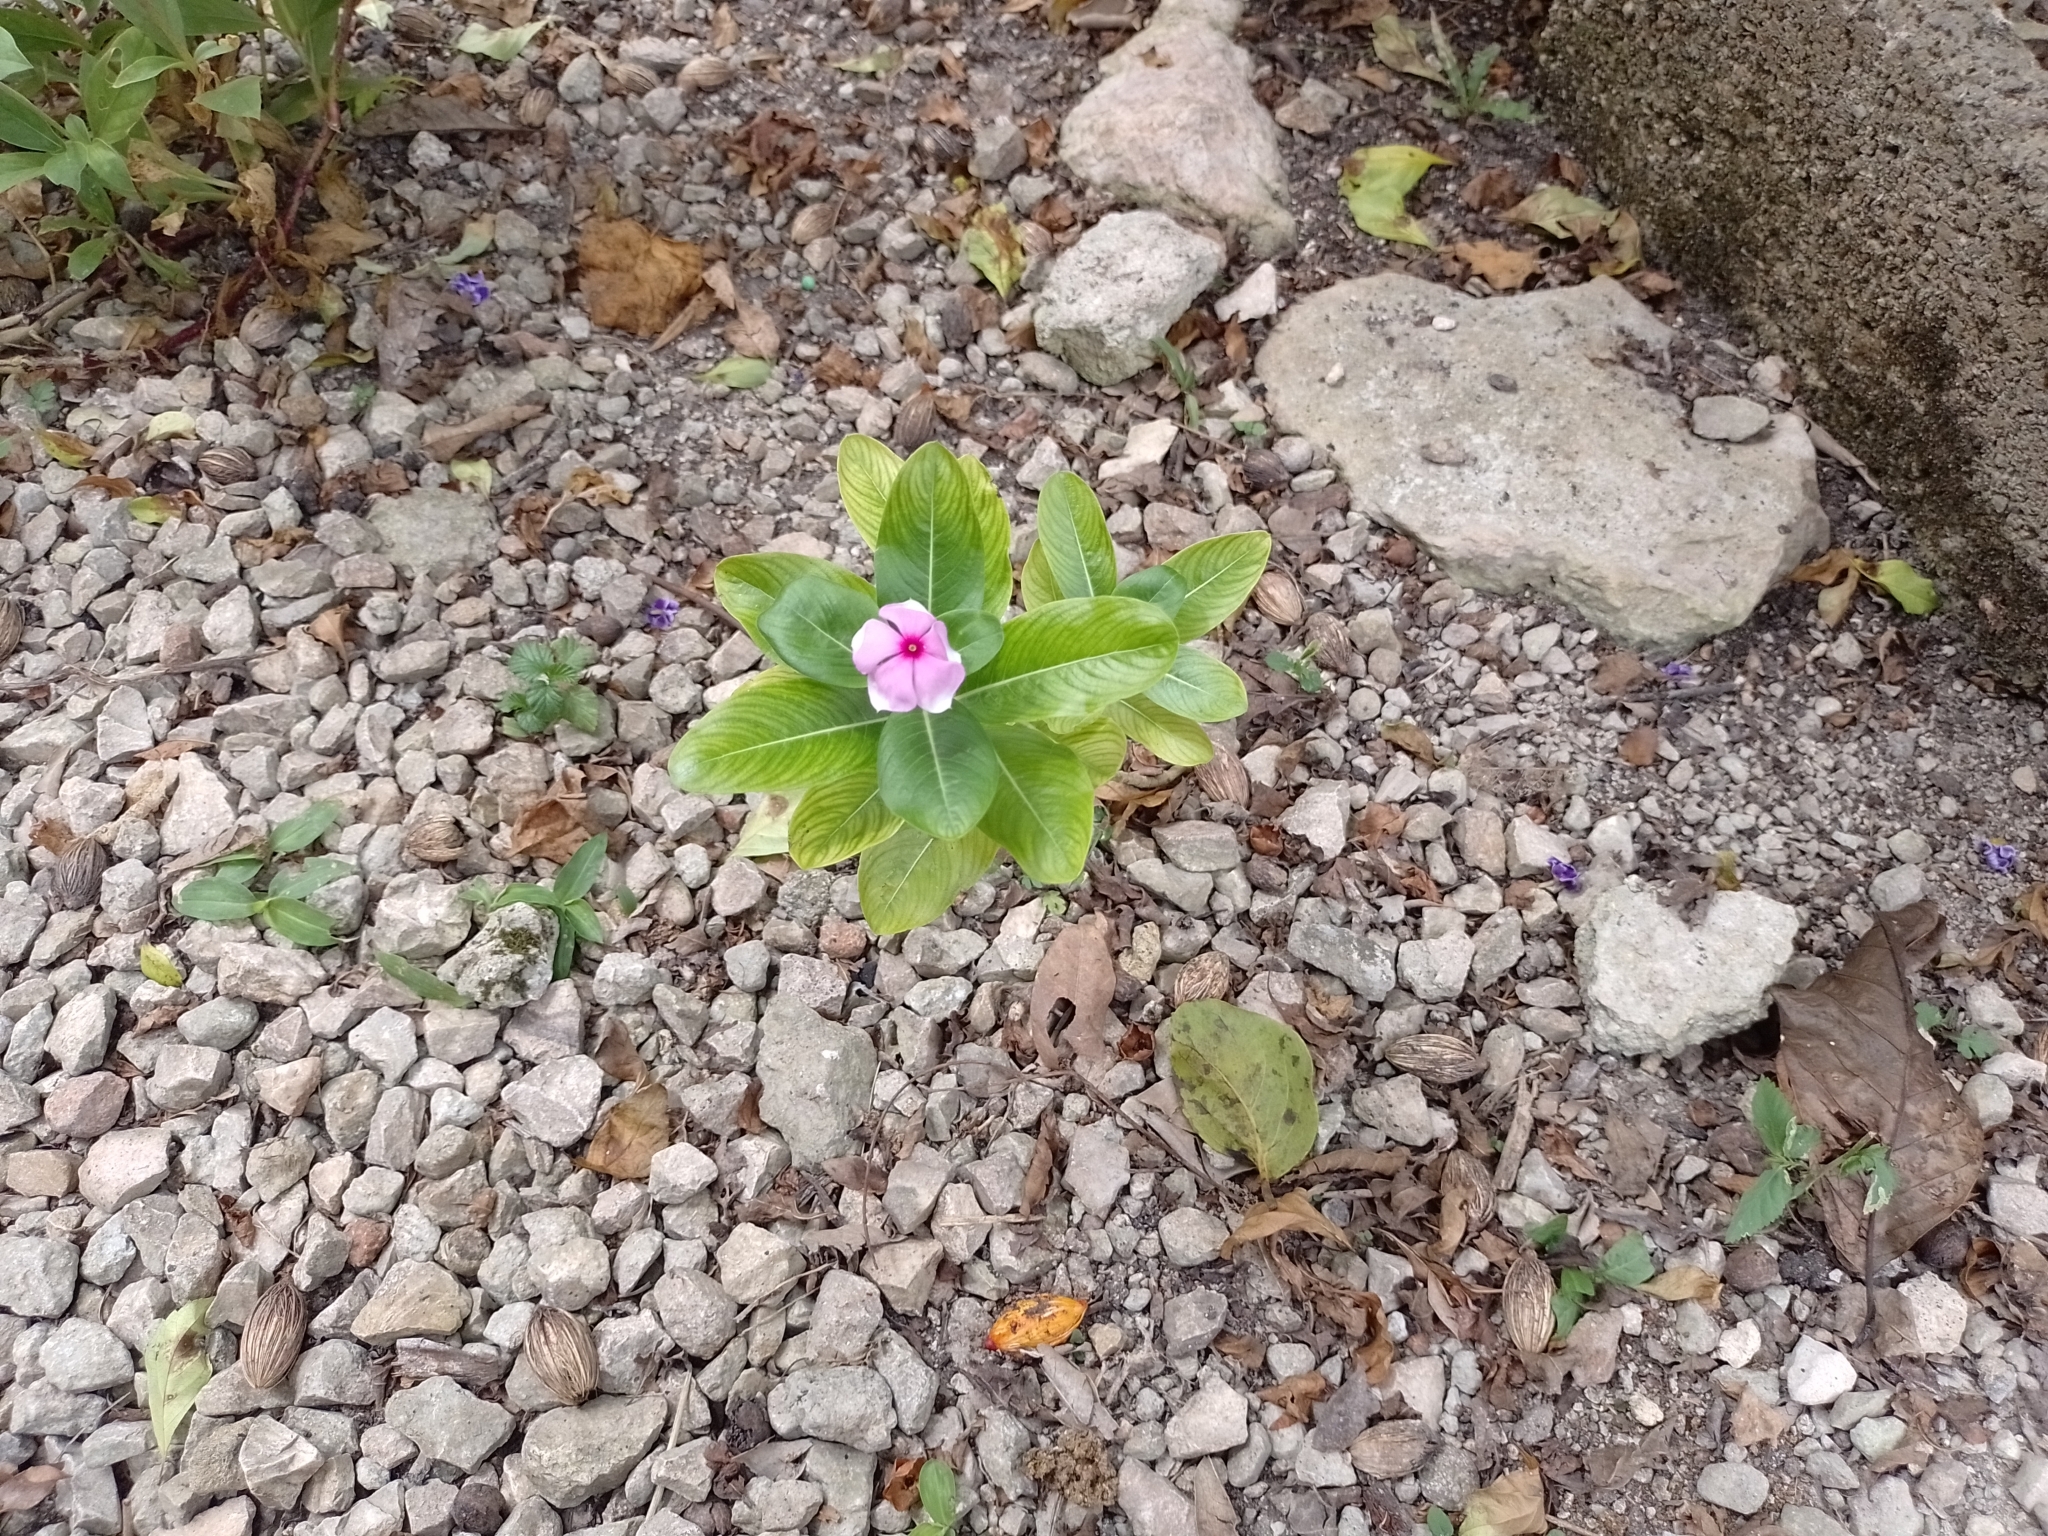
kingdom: Plantae
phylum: Tracheophyta
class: Magnoliopsida
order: Gentianales
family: Apocynaceae
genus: Catharanthus
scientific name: Catharanthus roseus
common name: Madagascar periwinkle
